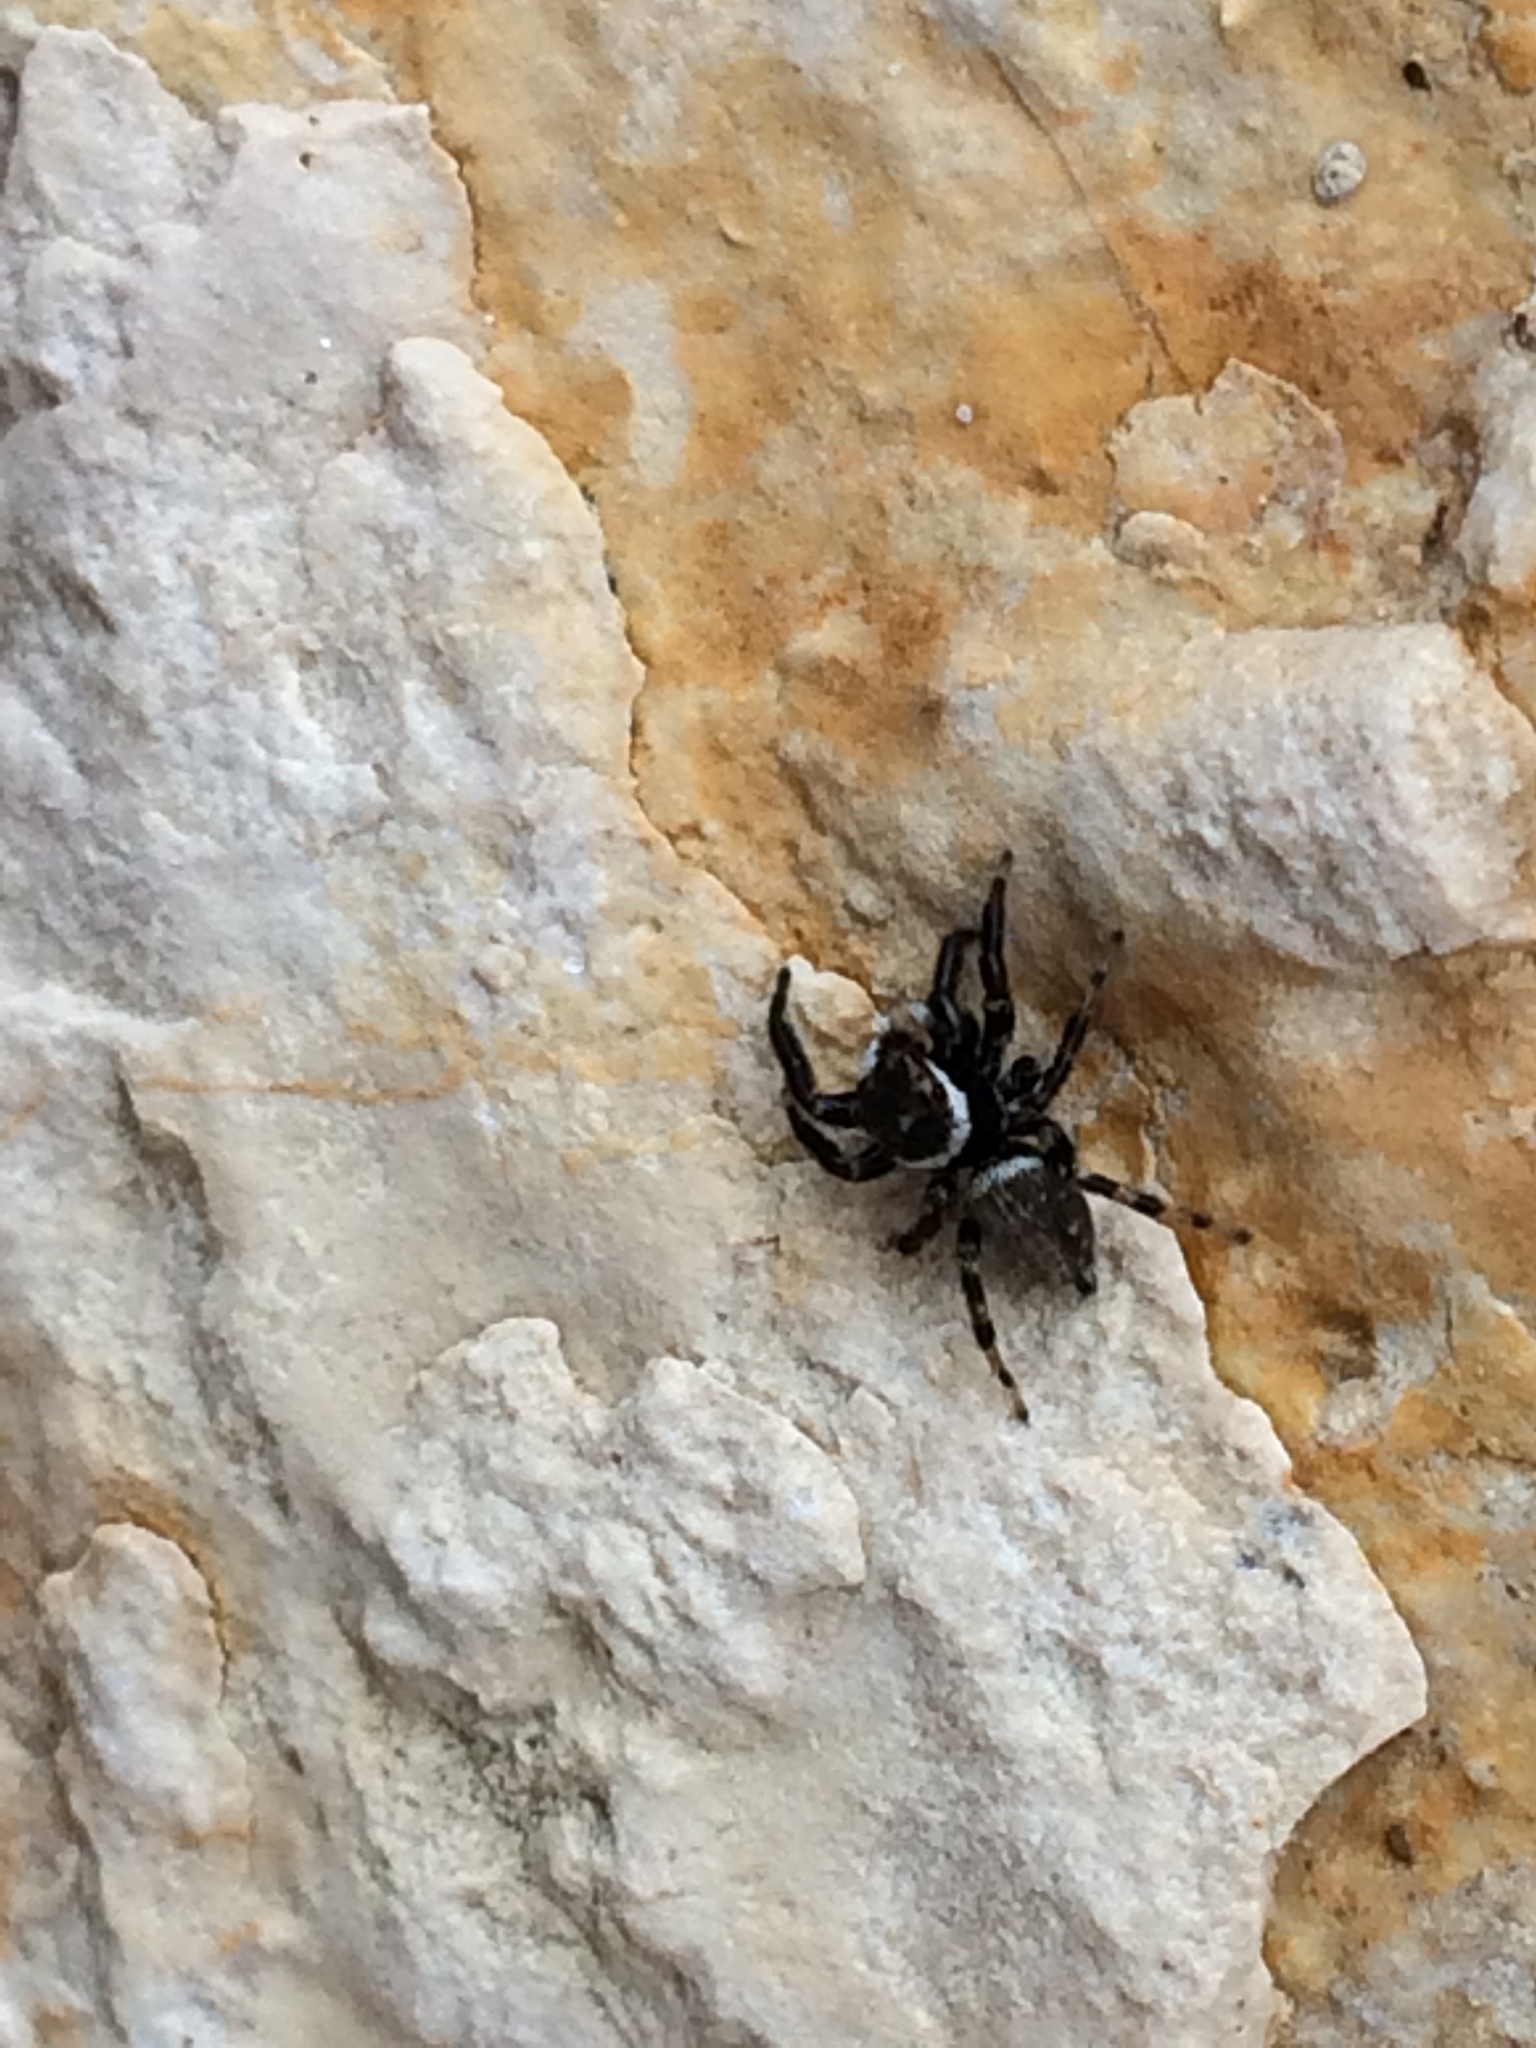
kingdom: Animalia
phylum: Arthropoda
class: Arachnida
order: Araneae
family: Salticidae
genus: Evarcha
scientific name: Evarcha jucunda
